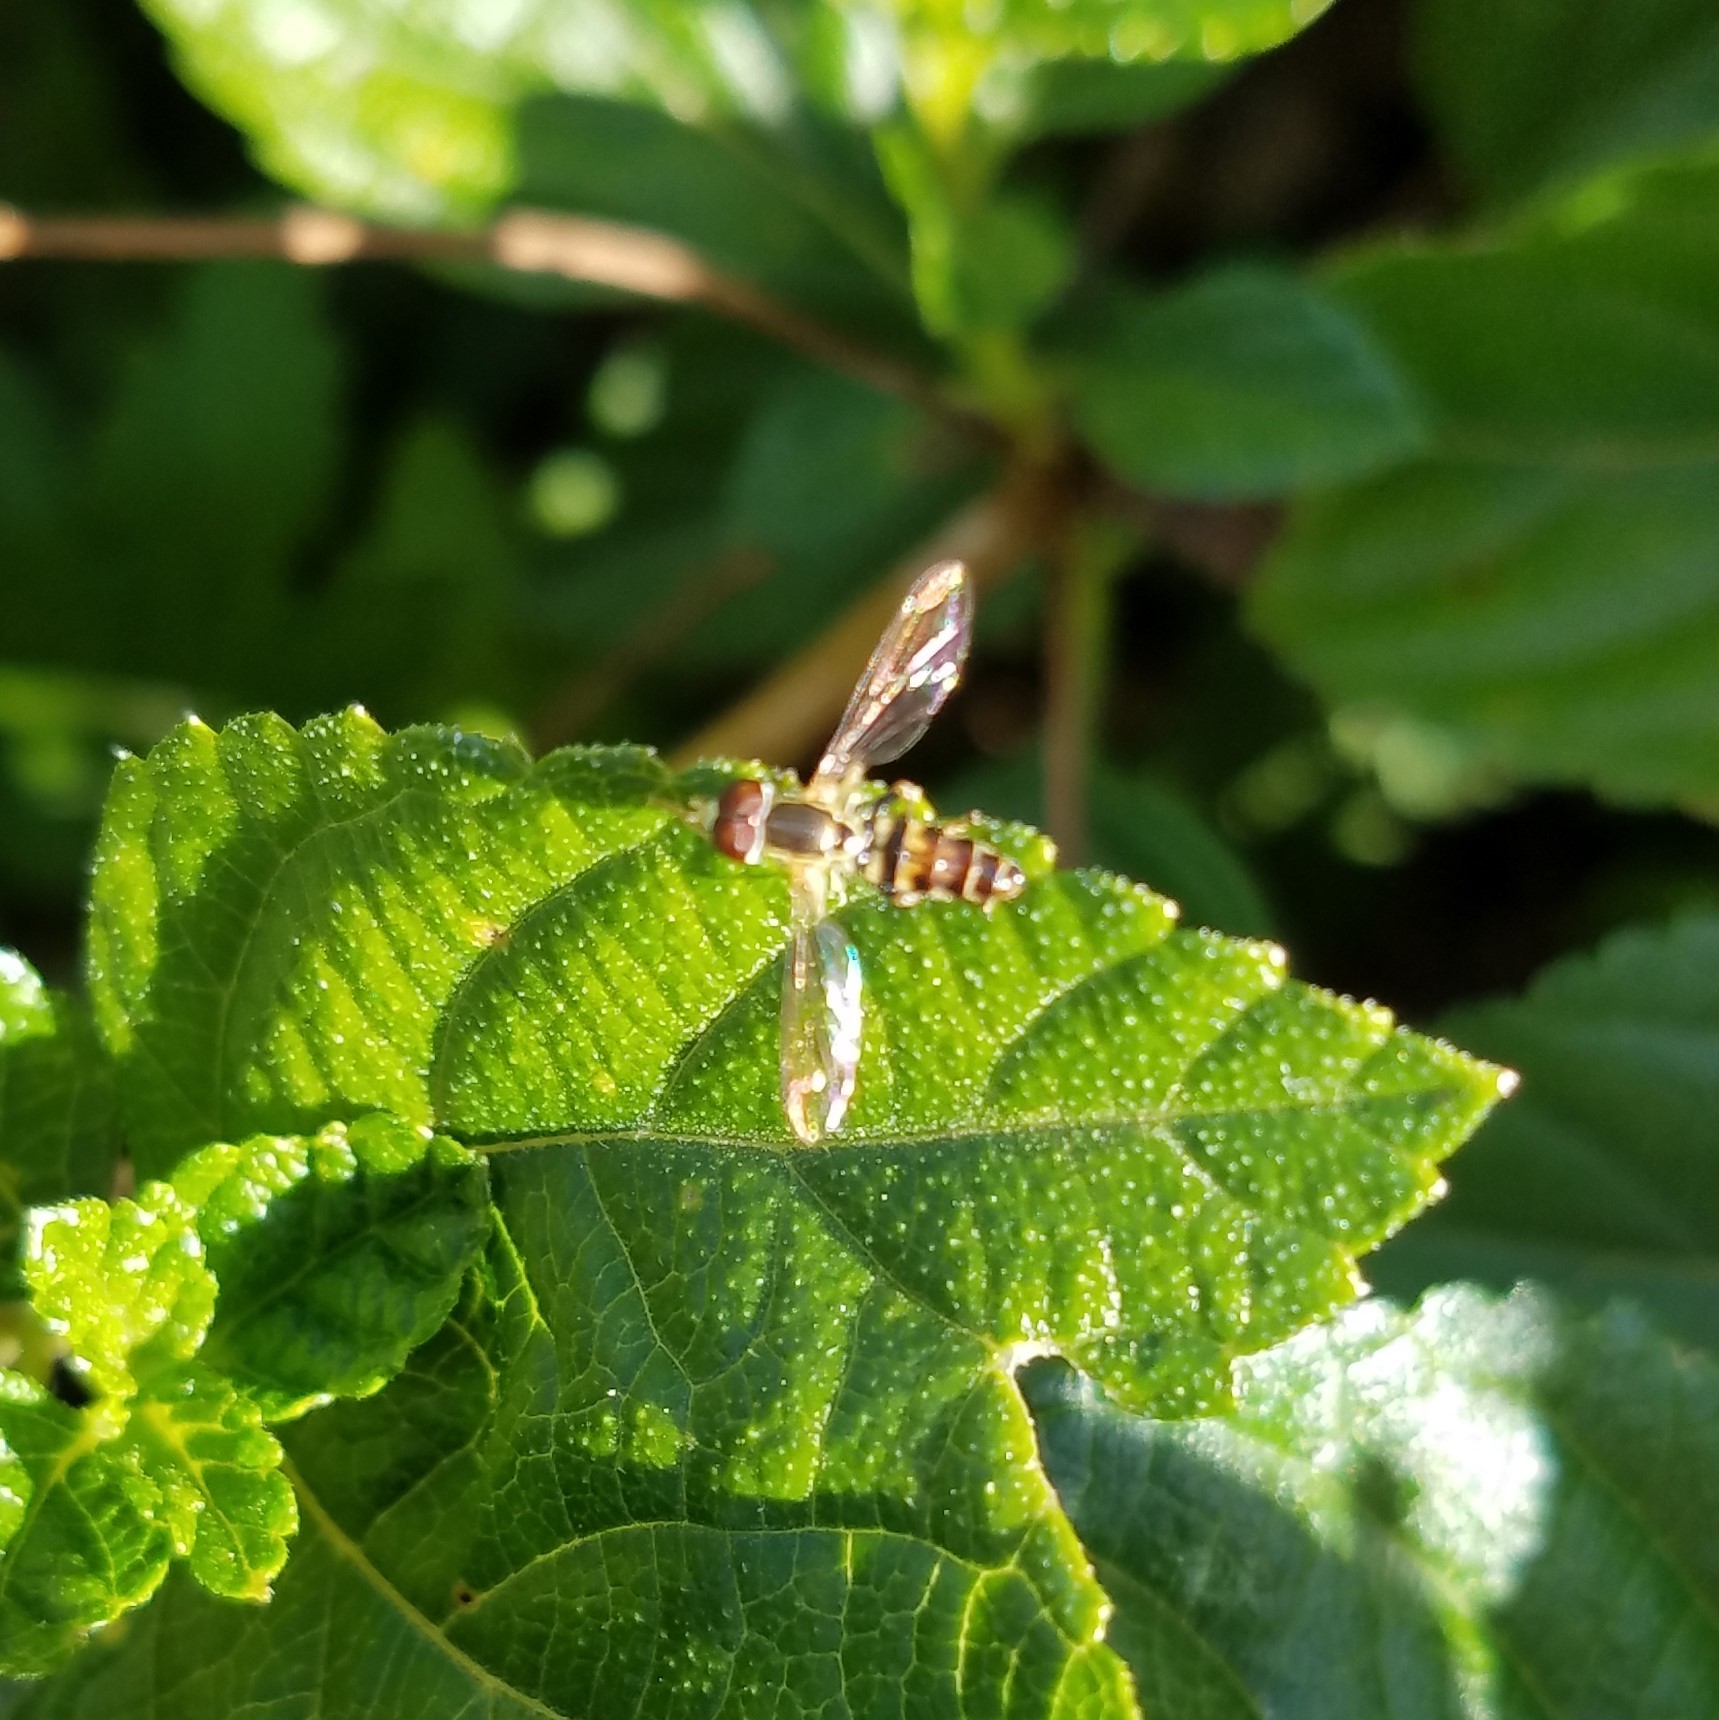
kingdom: Animalia
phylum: Arthropoda
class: Insecta
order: Diptera
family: Syrphidae
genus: Toxomerus
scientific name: Toxomerus geminatus
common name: Eastern calligrapher
